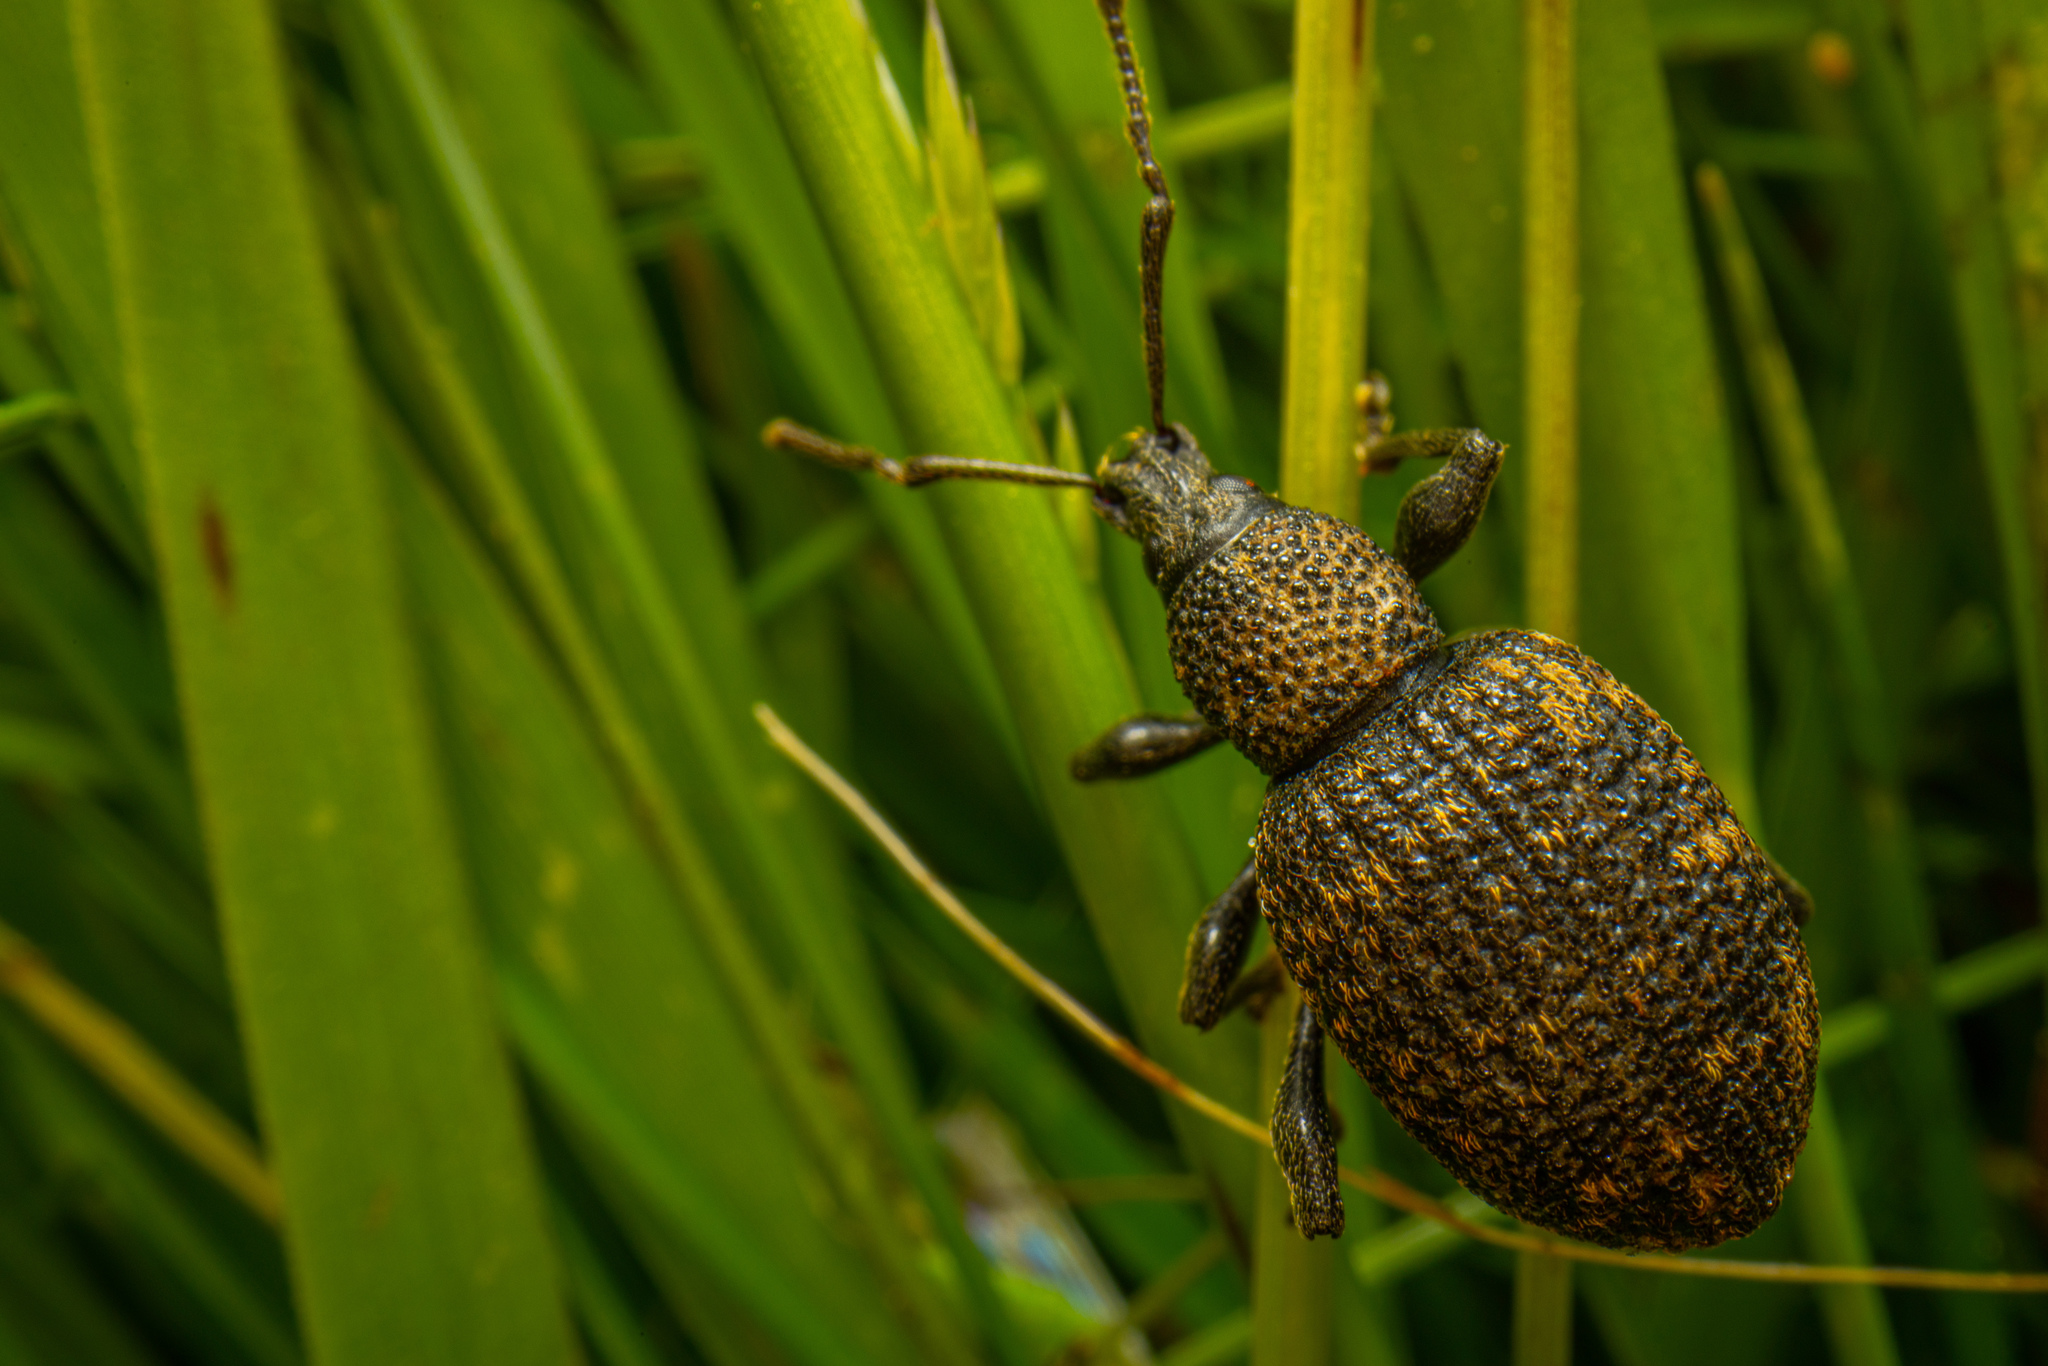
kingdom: Animalia
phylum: Arthropoda
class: Insecta
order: Coleoptera
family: Curculionidae
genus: Otiorhynchus
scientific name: Otiorhynchus sulcatus
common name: Black vine weevil
